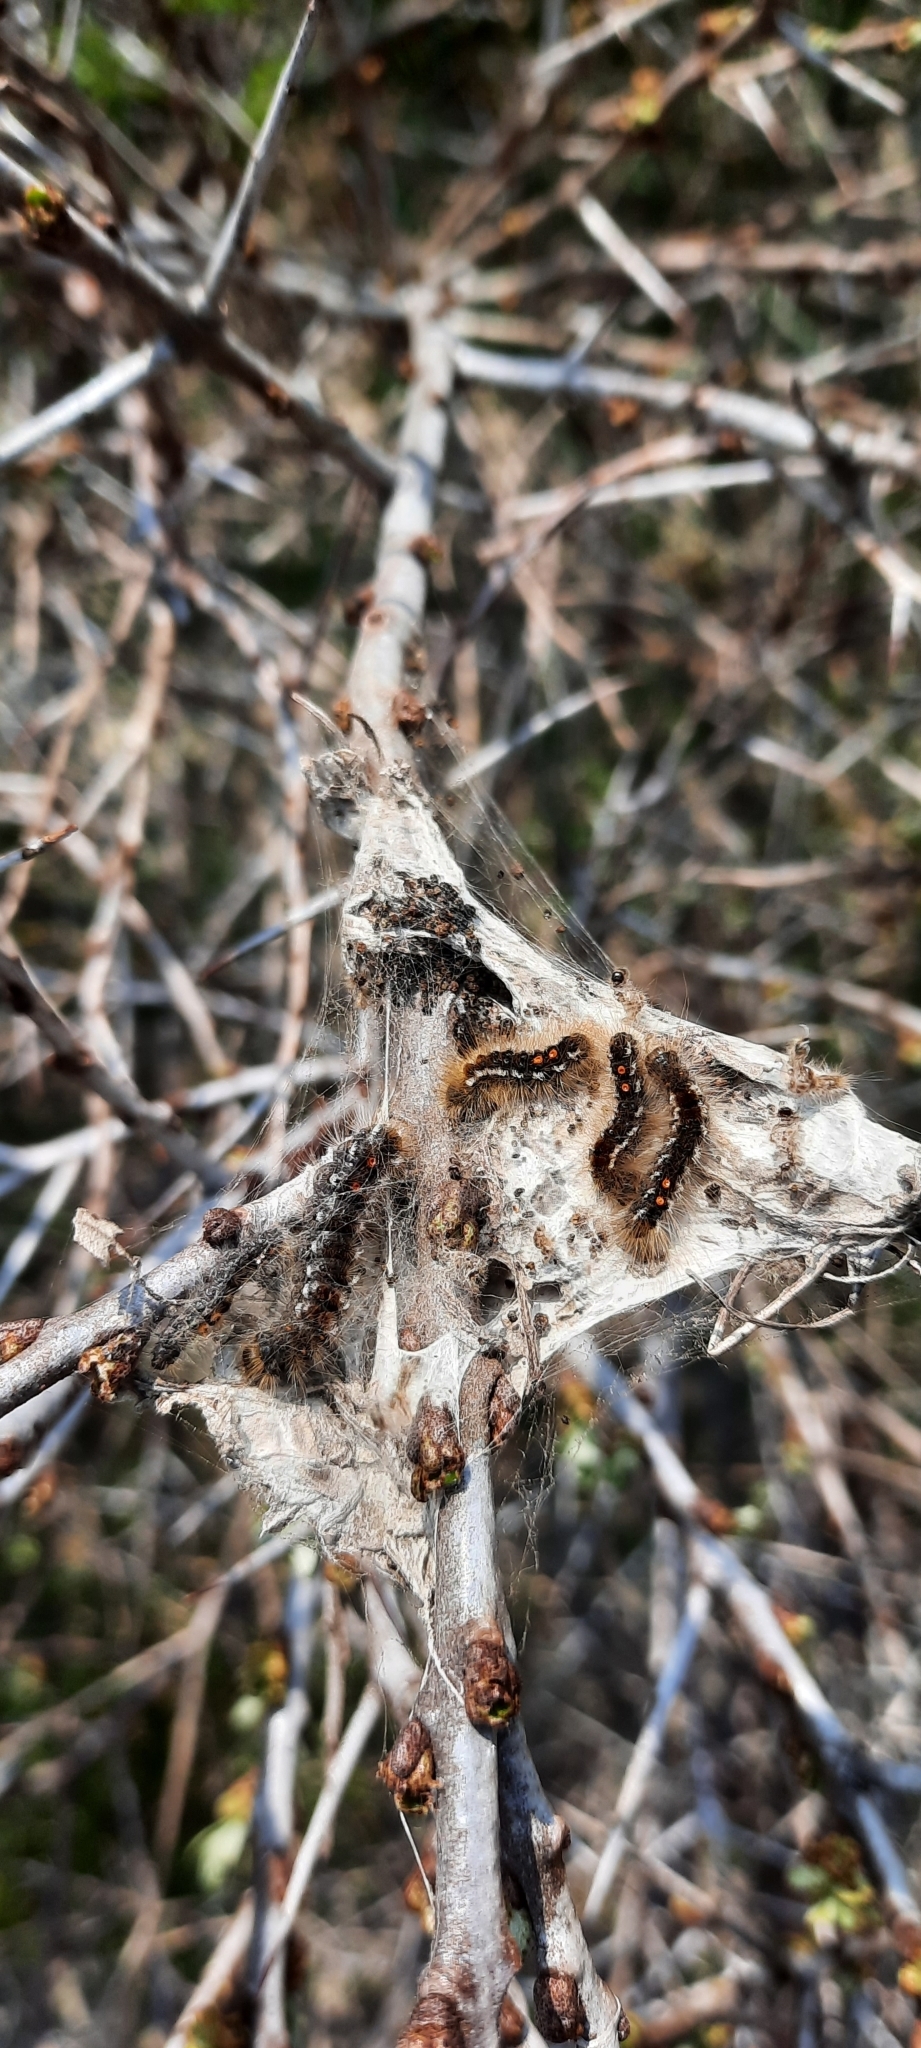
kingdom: Animalia
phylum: Arthropoda
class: Insecta
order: Lepidoptera
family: Erebidae
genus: Euproctis
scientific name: Euproctis chrysorrhoea
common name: Brown-tail
